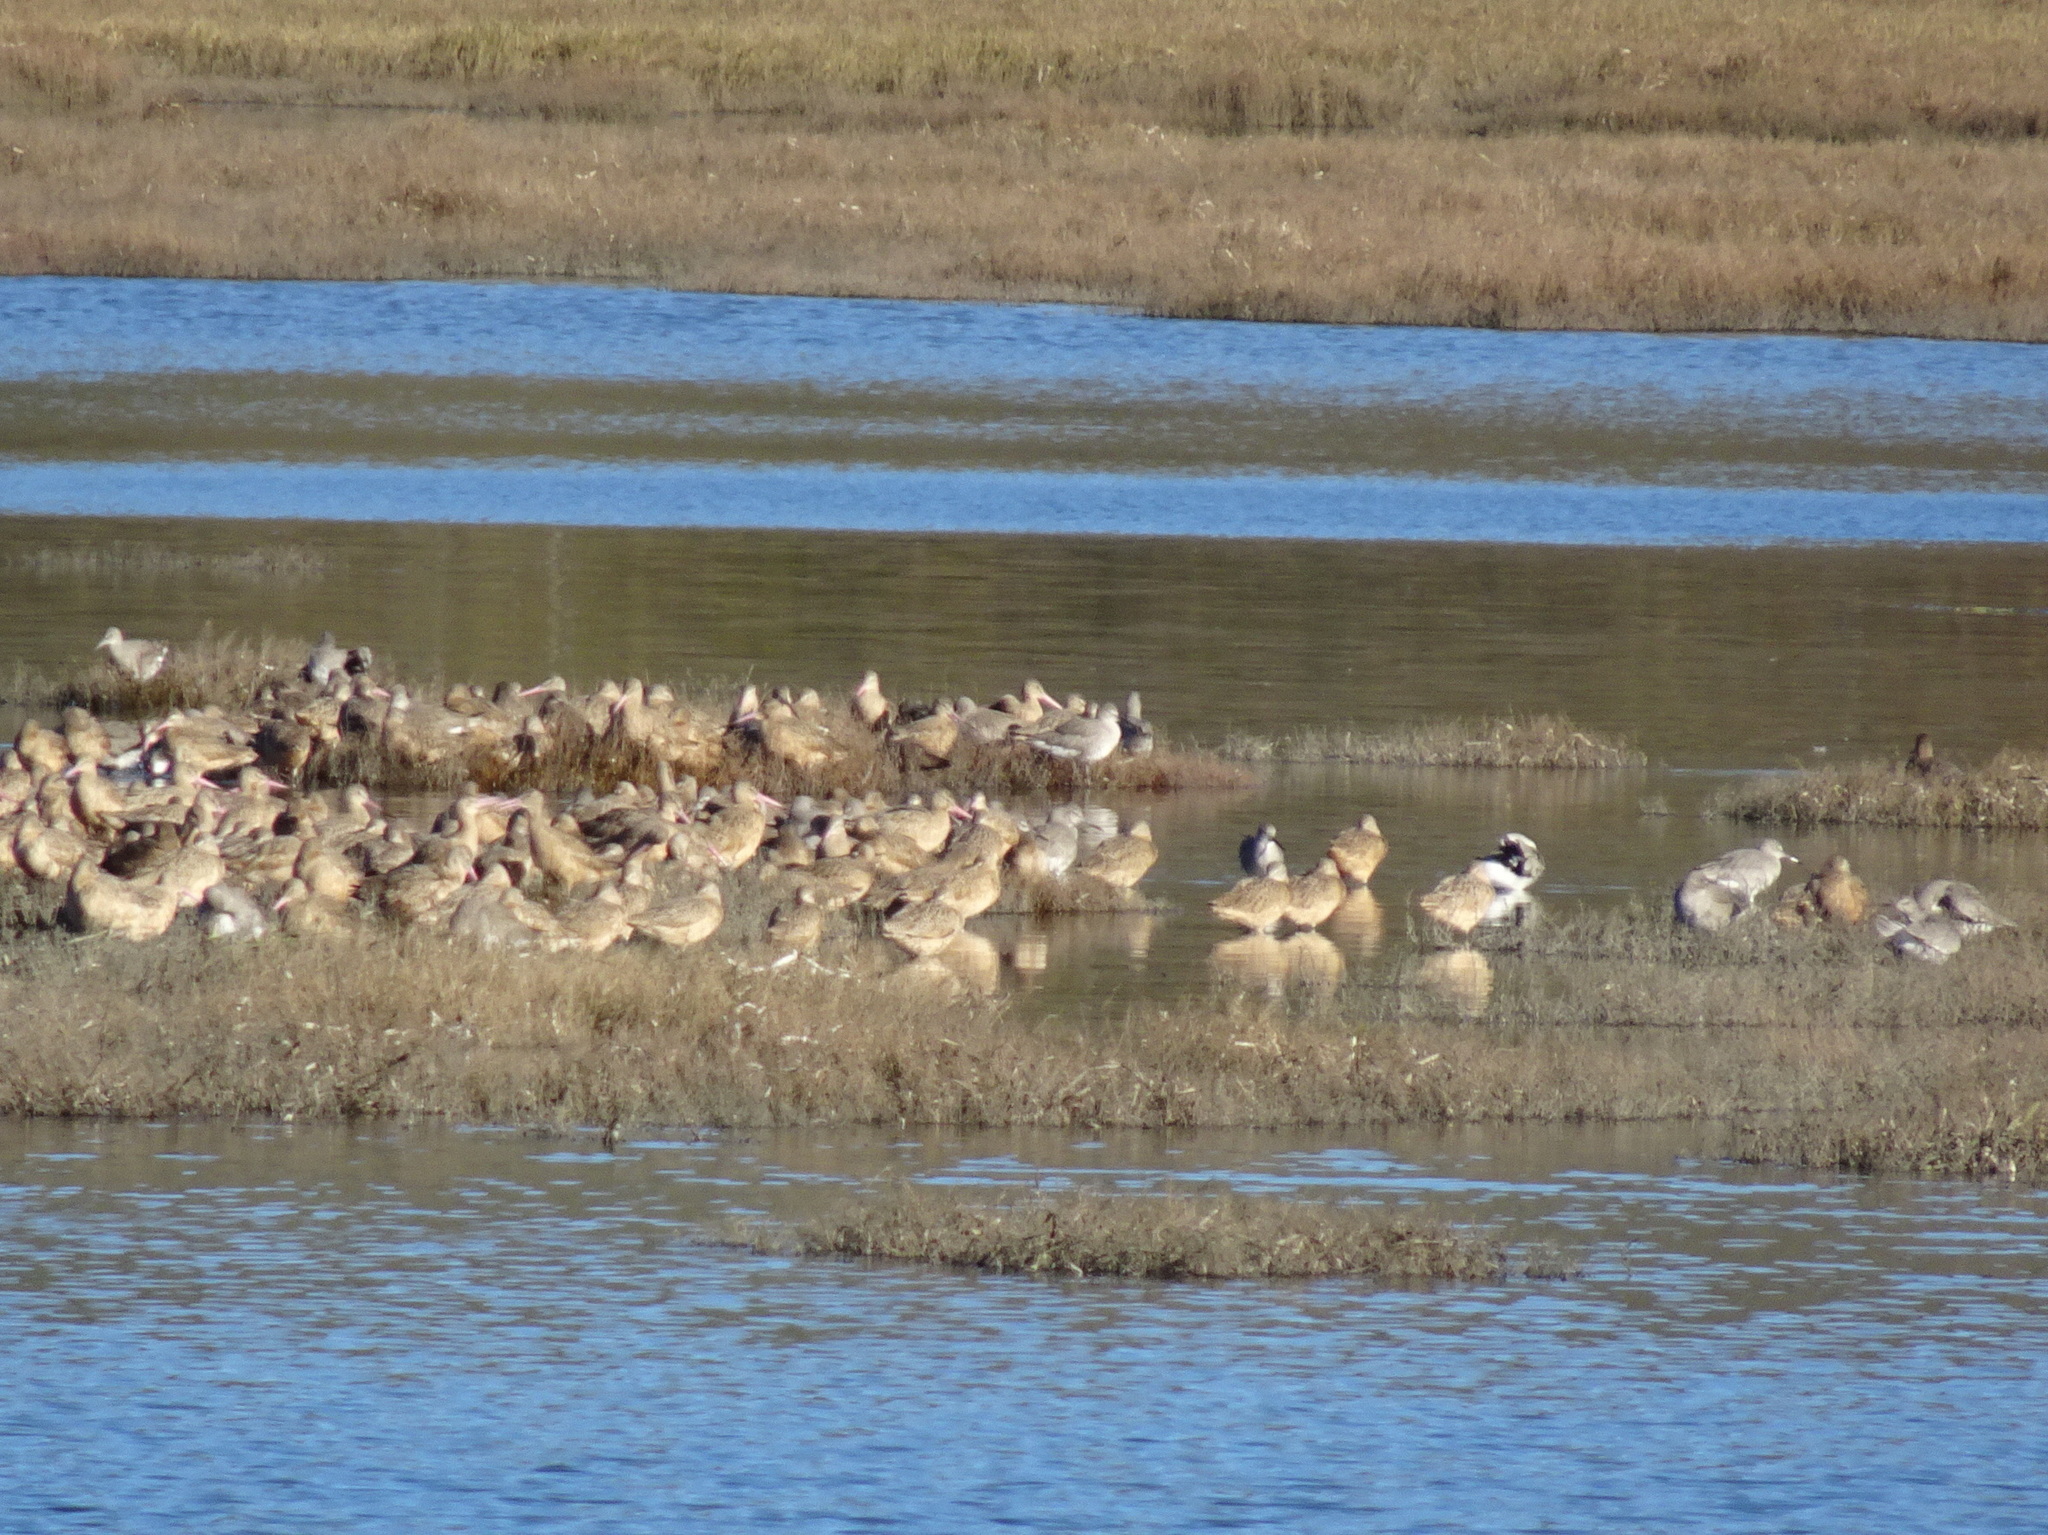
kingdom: Animalia
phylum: Chordata
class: Aves
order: Charadriiformes
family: Scolopacidae
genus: Tringa
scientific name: Tringa semipalmata
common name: Willet
